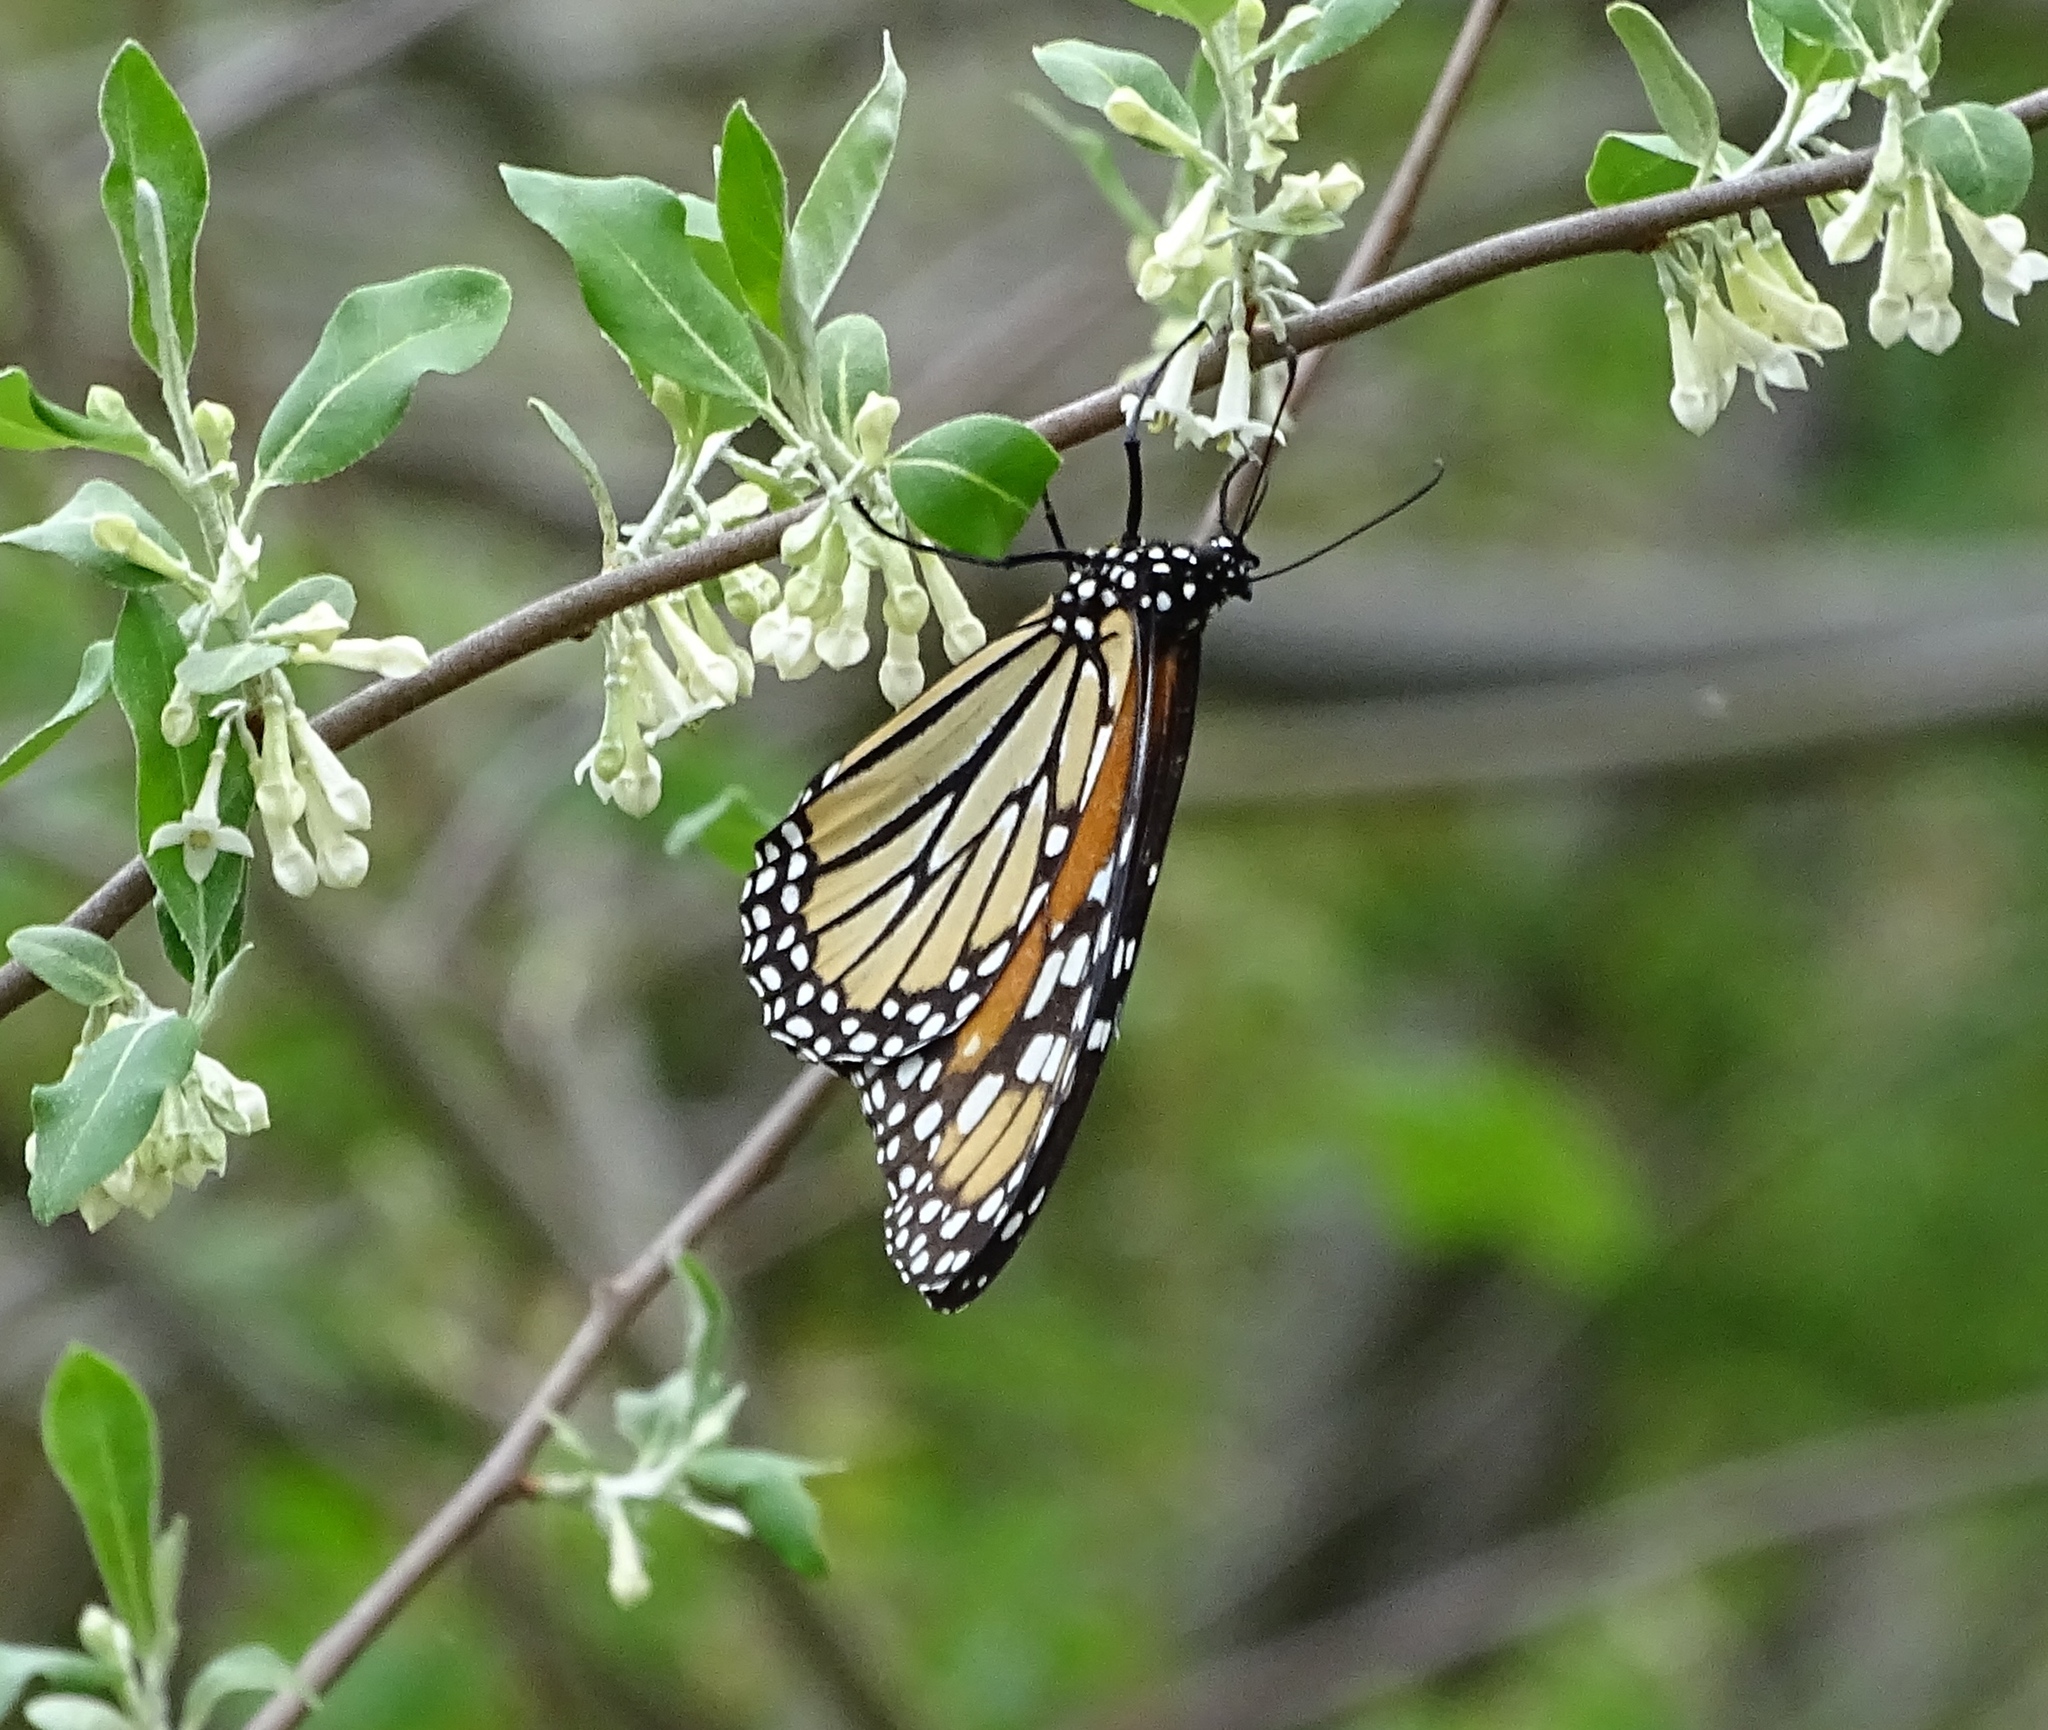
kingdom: Animalia
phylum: Arthropoda
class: Insecta
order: Lepidoptera
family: Nymphalidae
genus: Danaus
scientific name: Danaus plexippus
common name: Monarch
